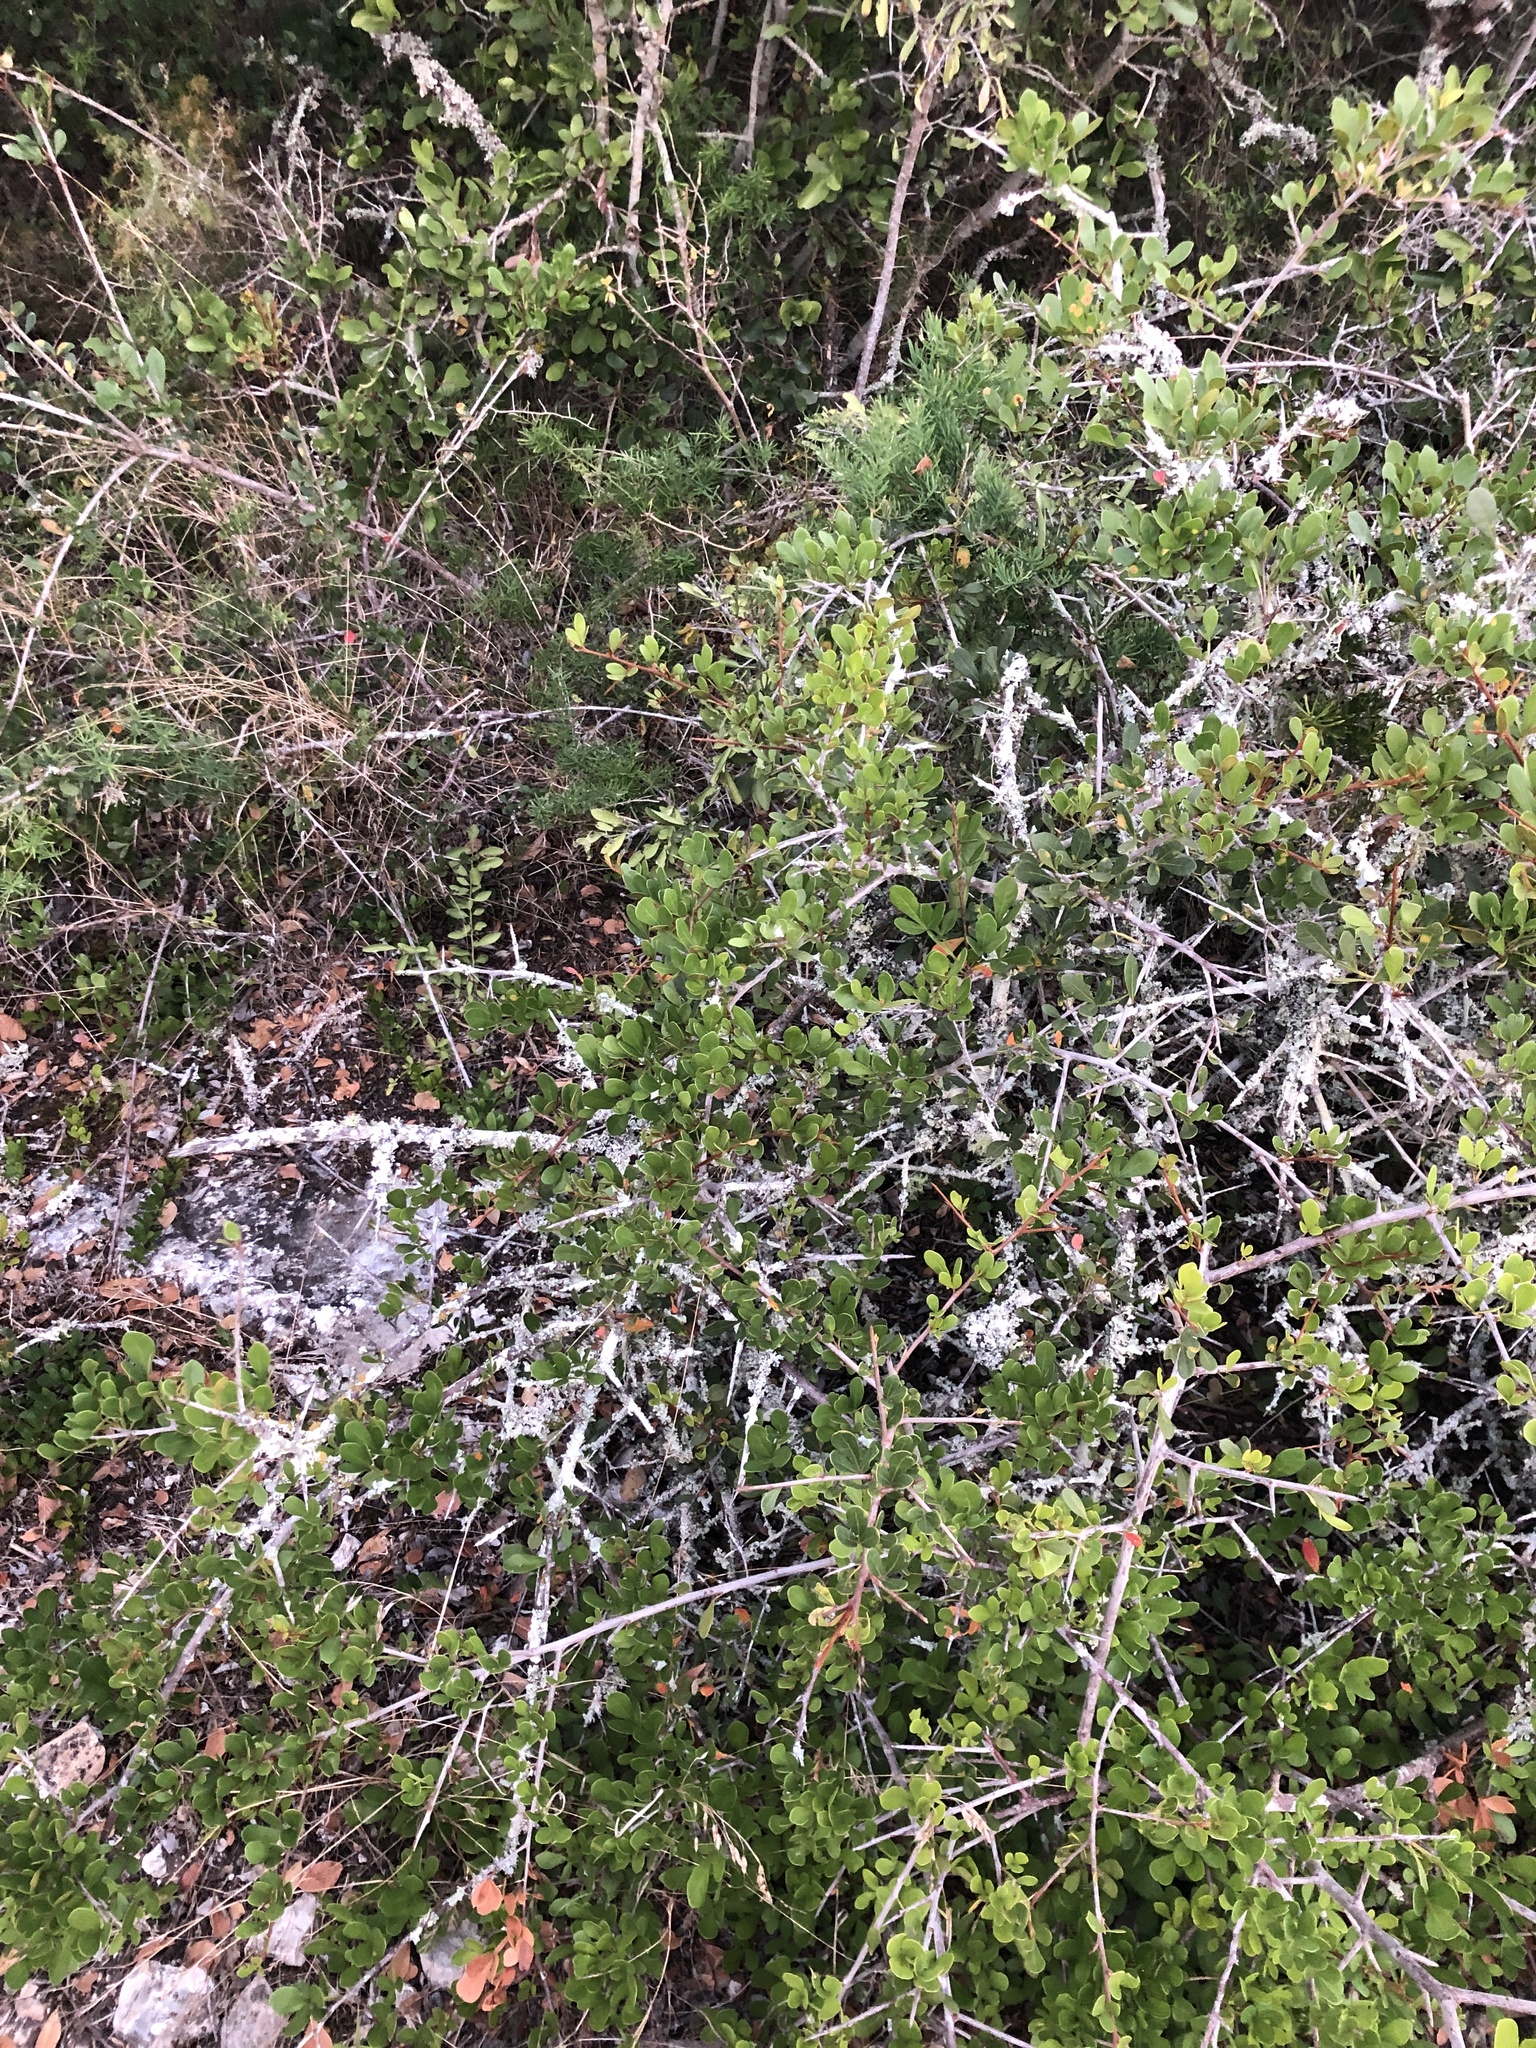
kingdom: Plantae
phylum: Tracheophyta
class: Magnoliopsida
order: Sapindales
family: Anacardiaceae
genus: Searsia
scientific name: Searsia pterota
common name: Winged currant
